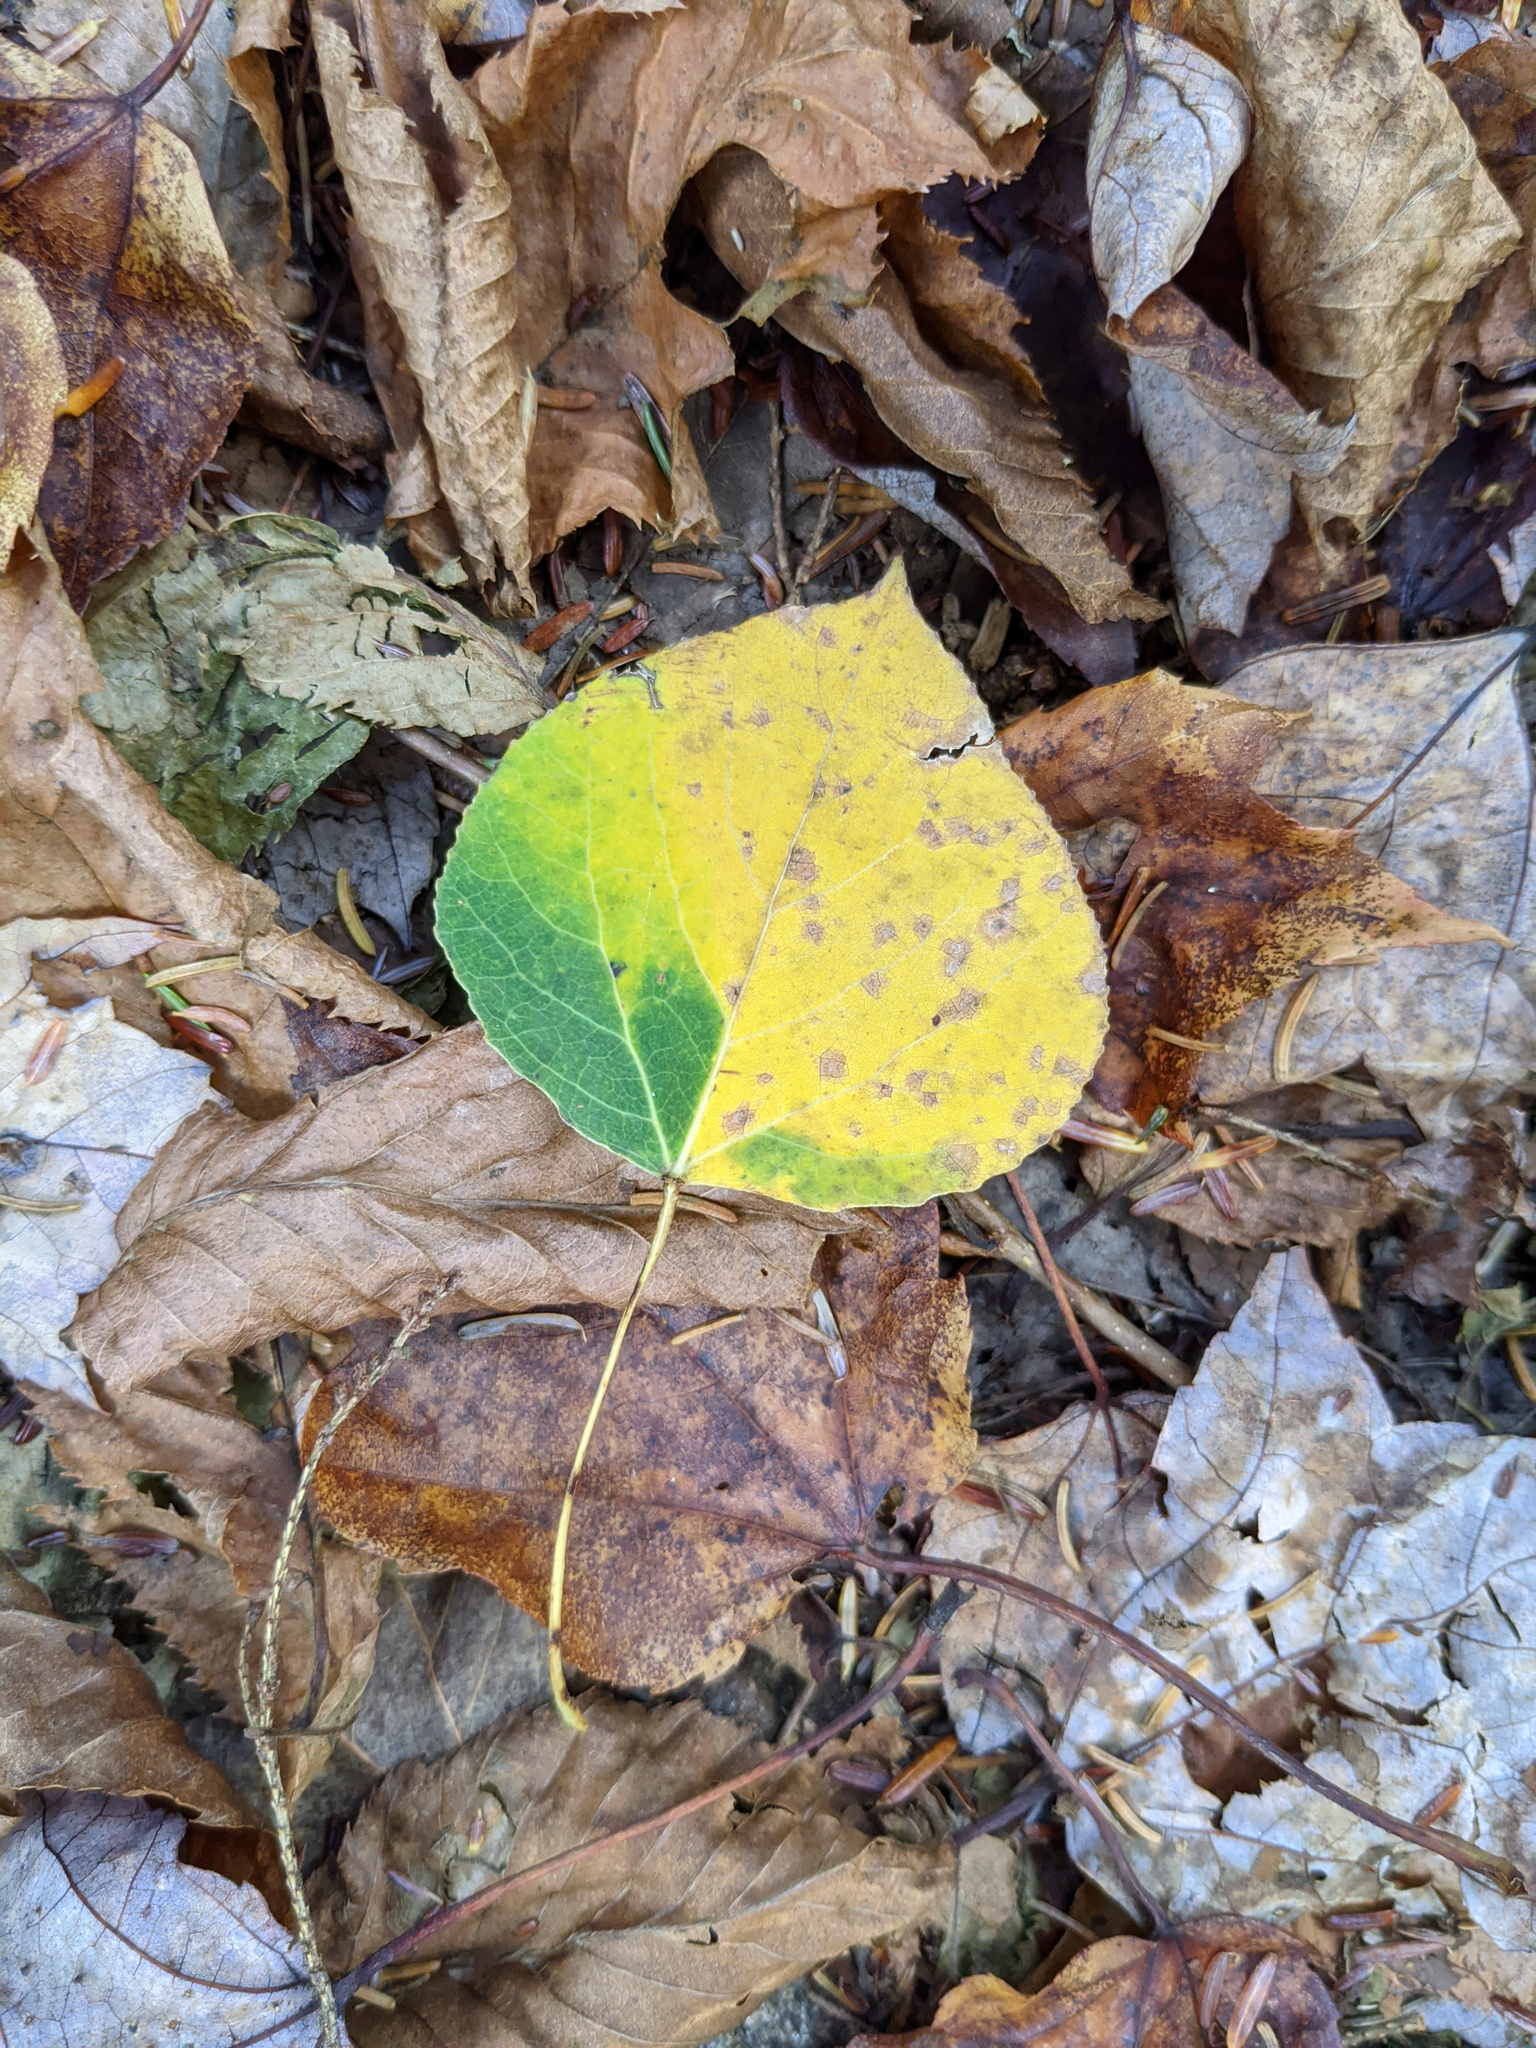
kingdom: Plantae
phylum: Tracheophyta
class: Magnoliopsida
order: Malpighiales
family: Salicaceae
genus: Populus
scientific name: Populus tremuloides
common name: Quaking aspen
